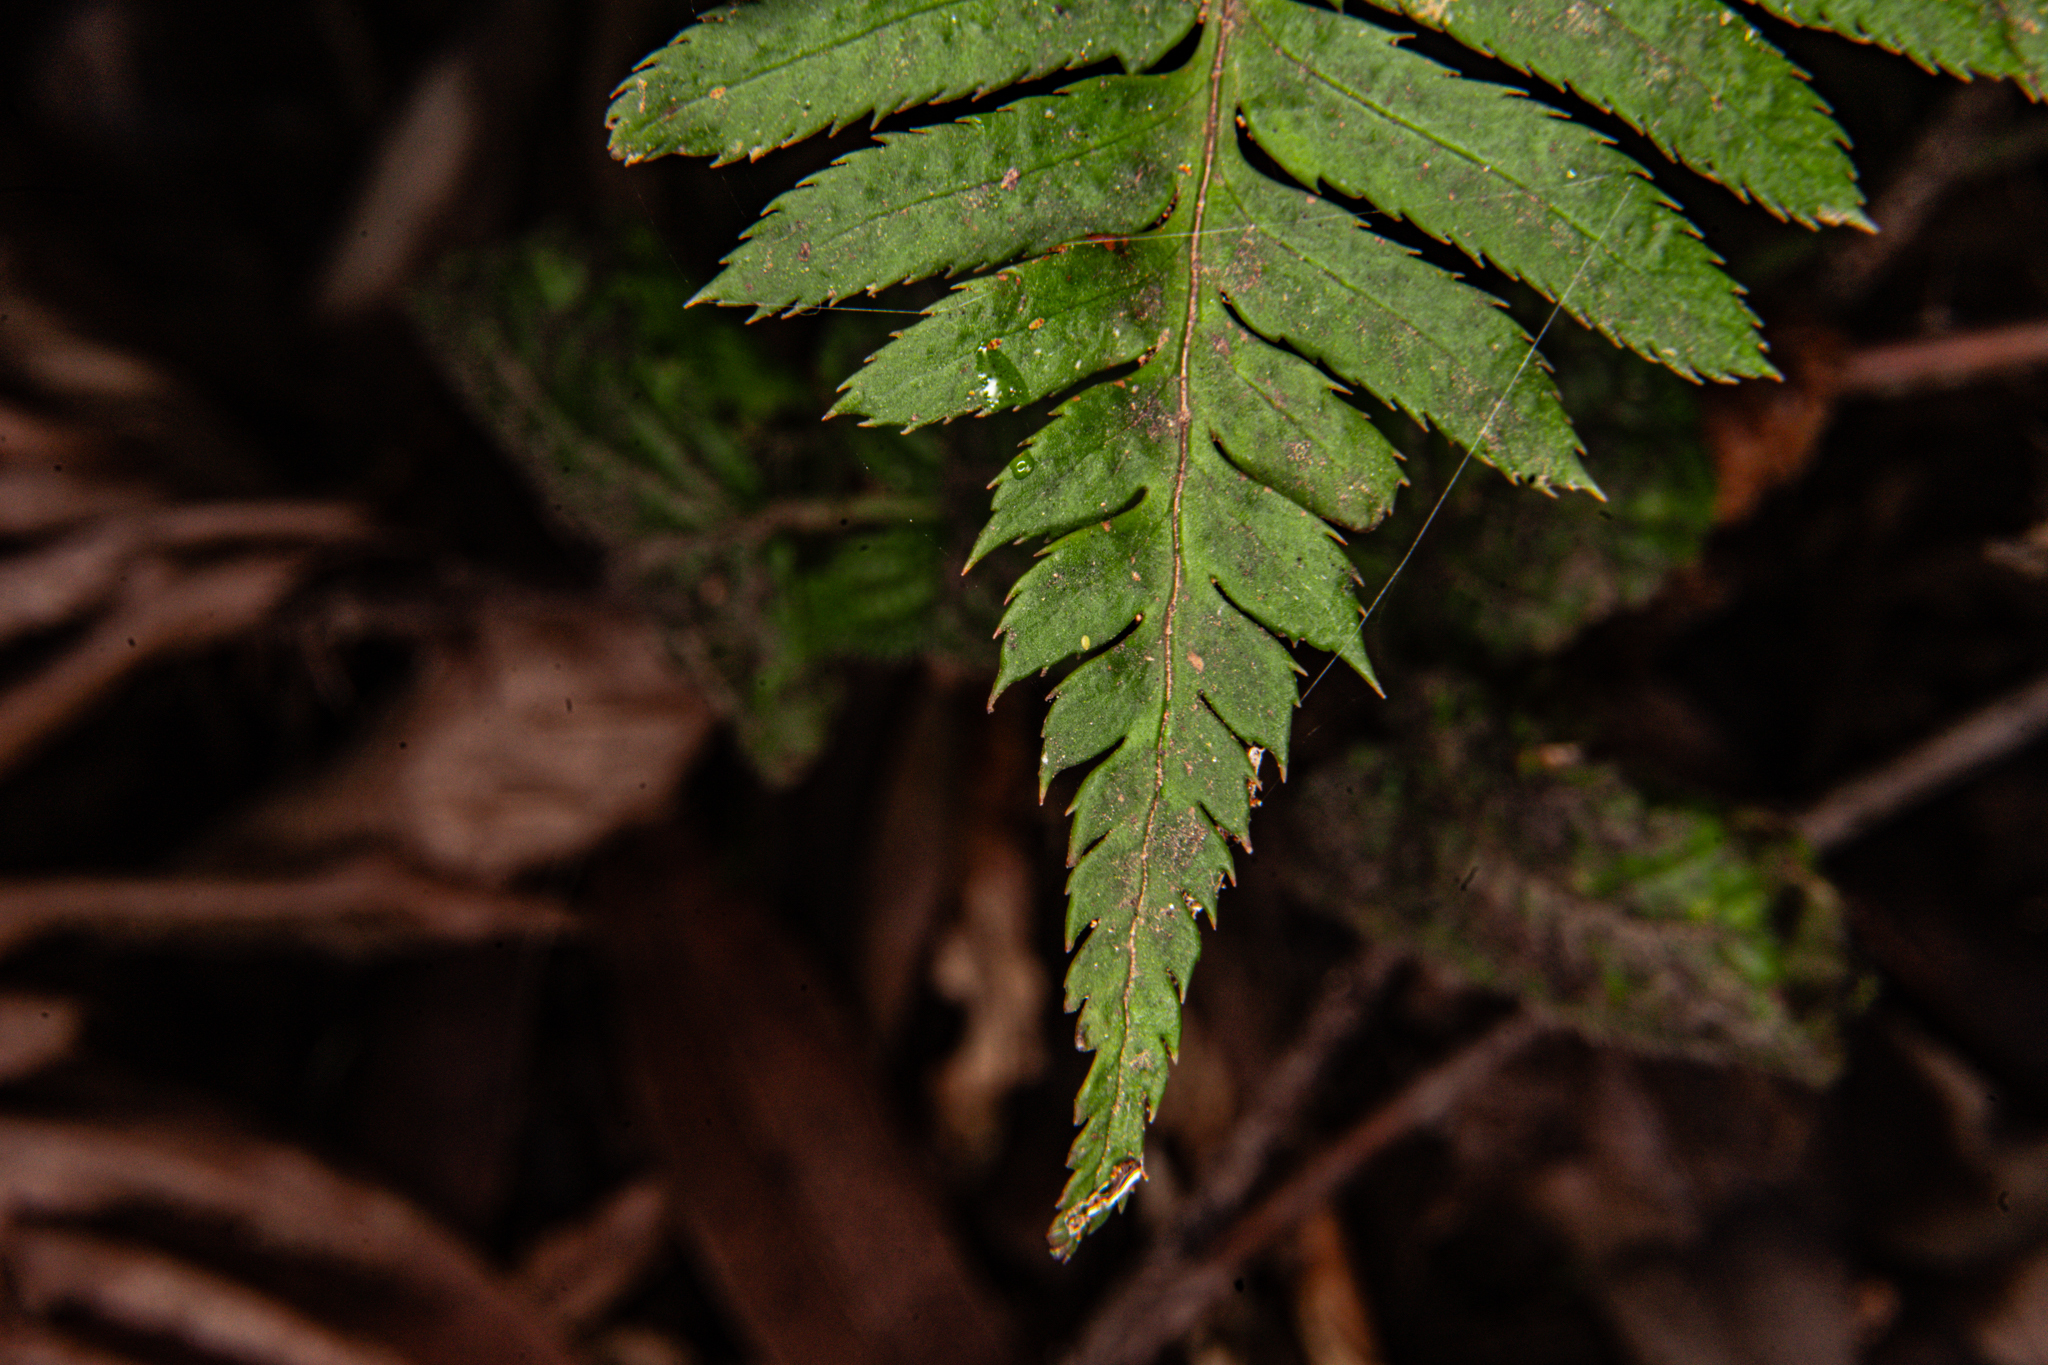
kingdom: Plantae
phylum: Tracheophyta
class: Polypodiopsida
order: Polypodiales
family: Dryopteridaceae
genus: Polystichum
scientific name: Polystichum munitum
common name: Western sword-fern
